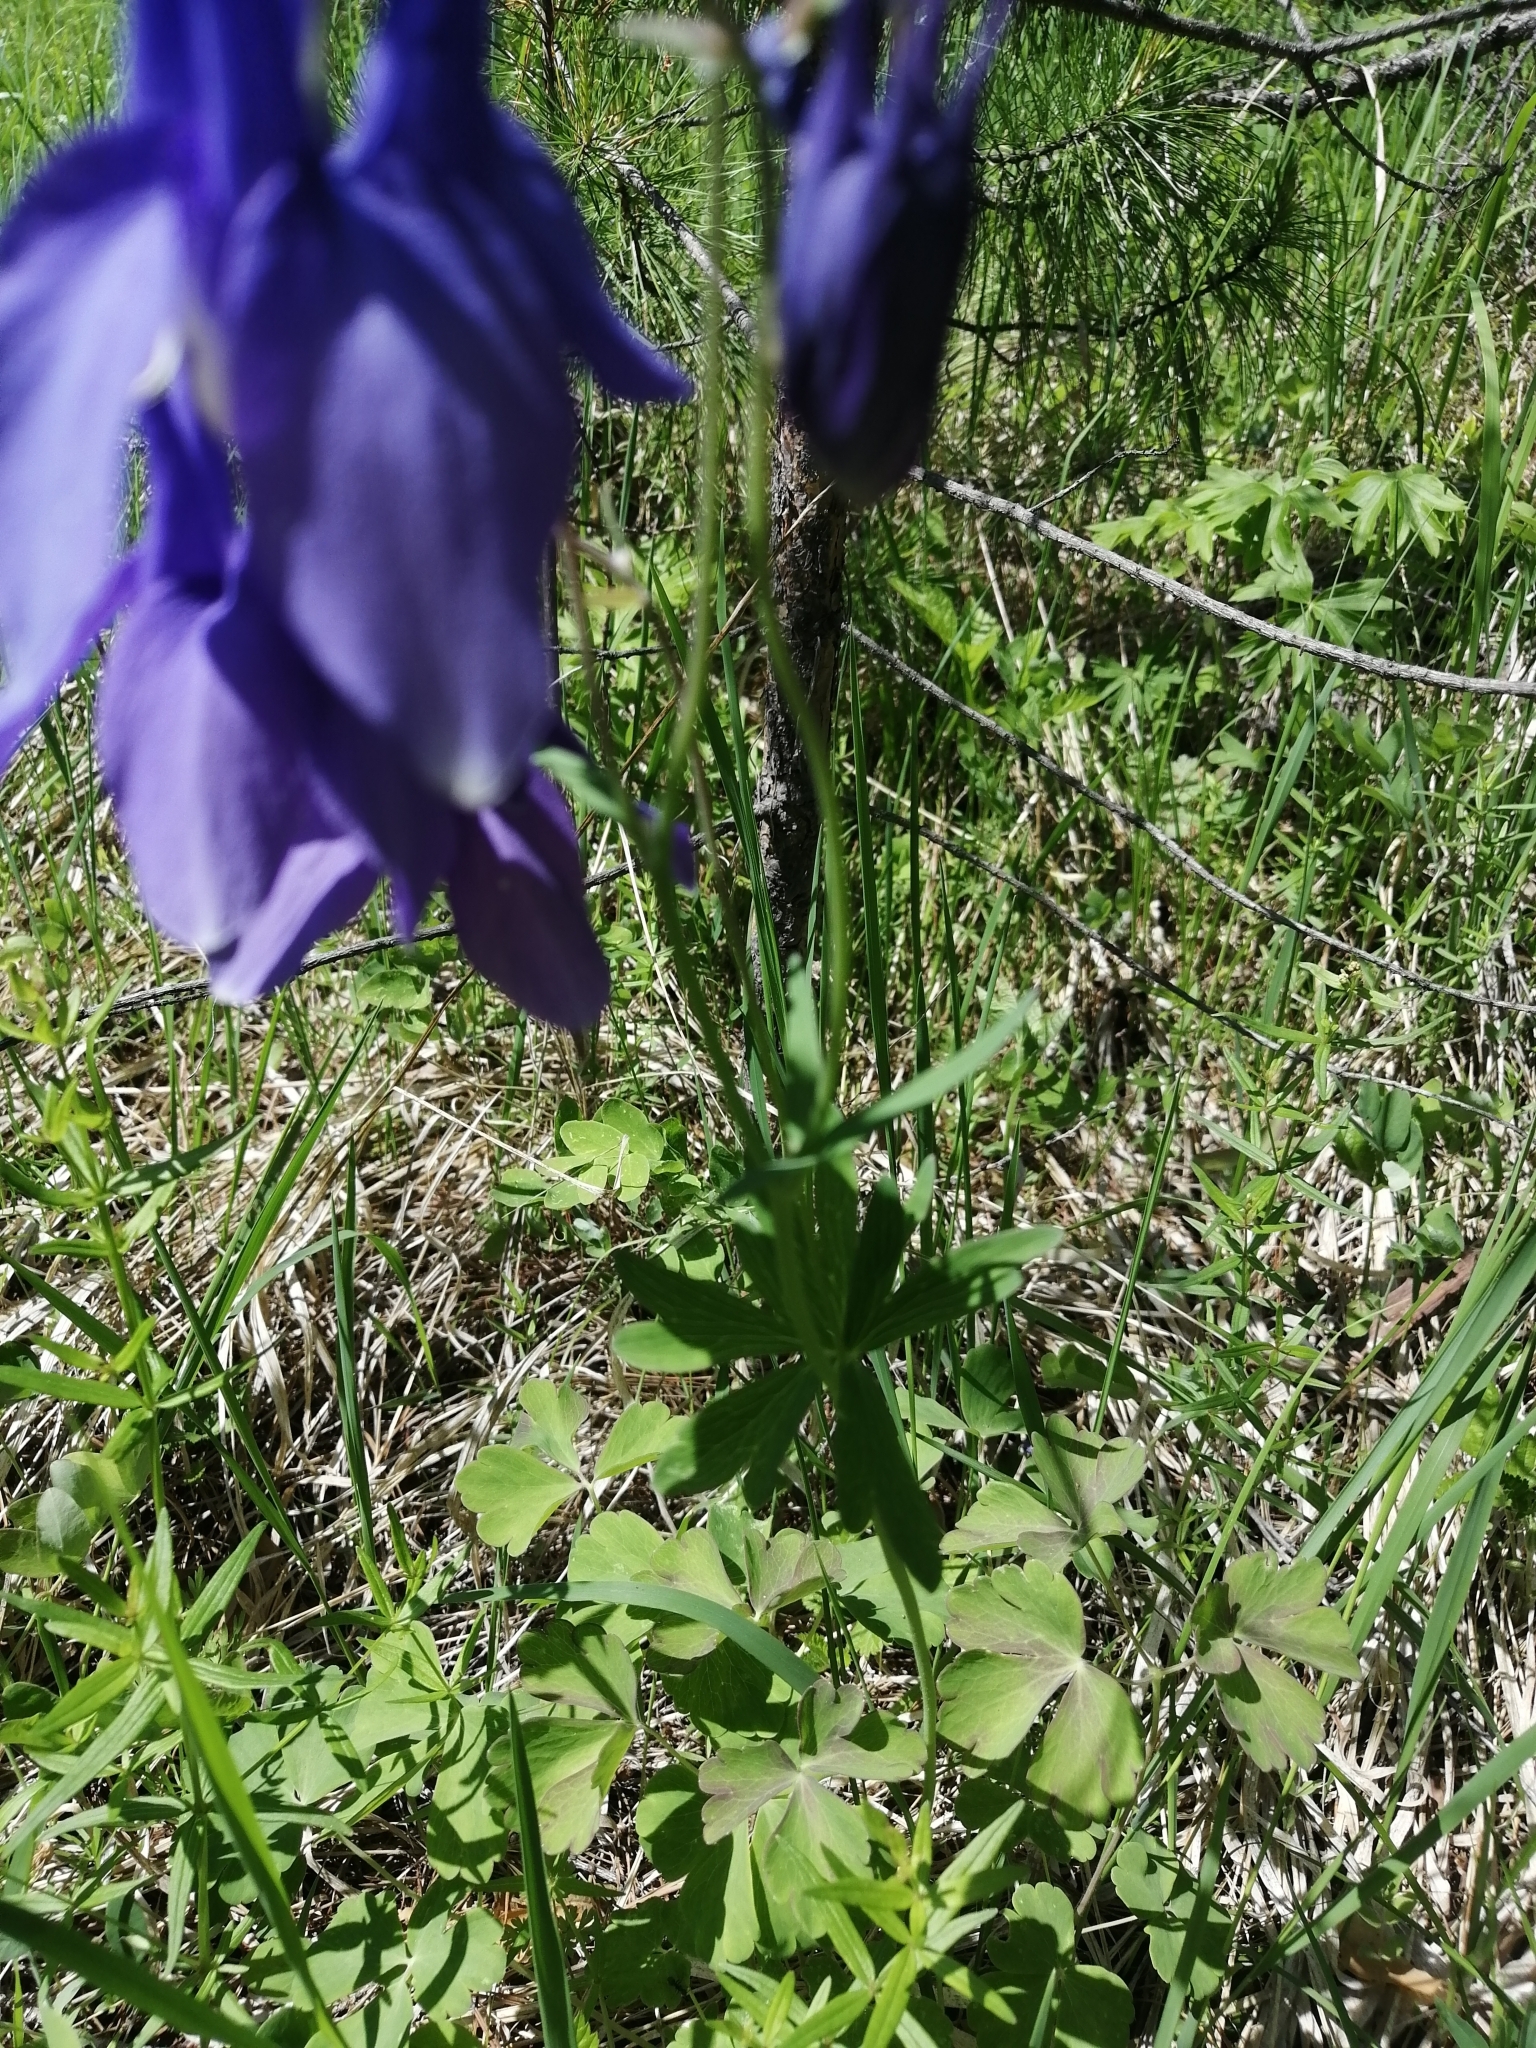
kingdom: Plantae
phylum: Tracheophyta
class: Magnoliopsida
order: Ranunculales
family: Ranunculaceae
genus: Aquilegia
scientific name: Aquilegia sibirica
